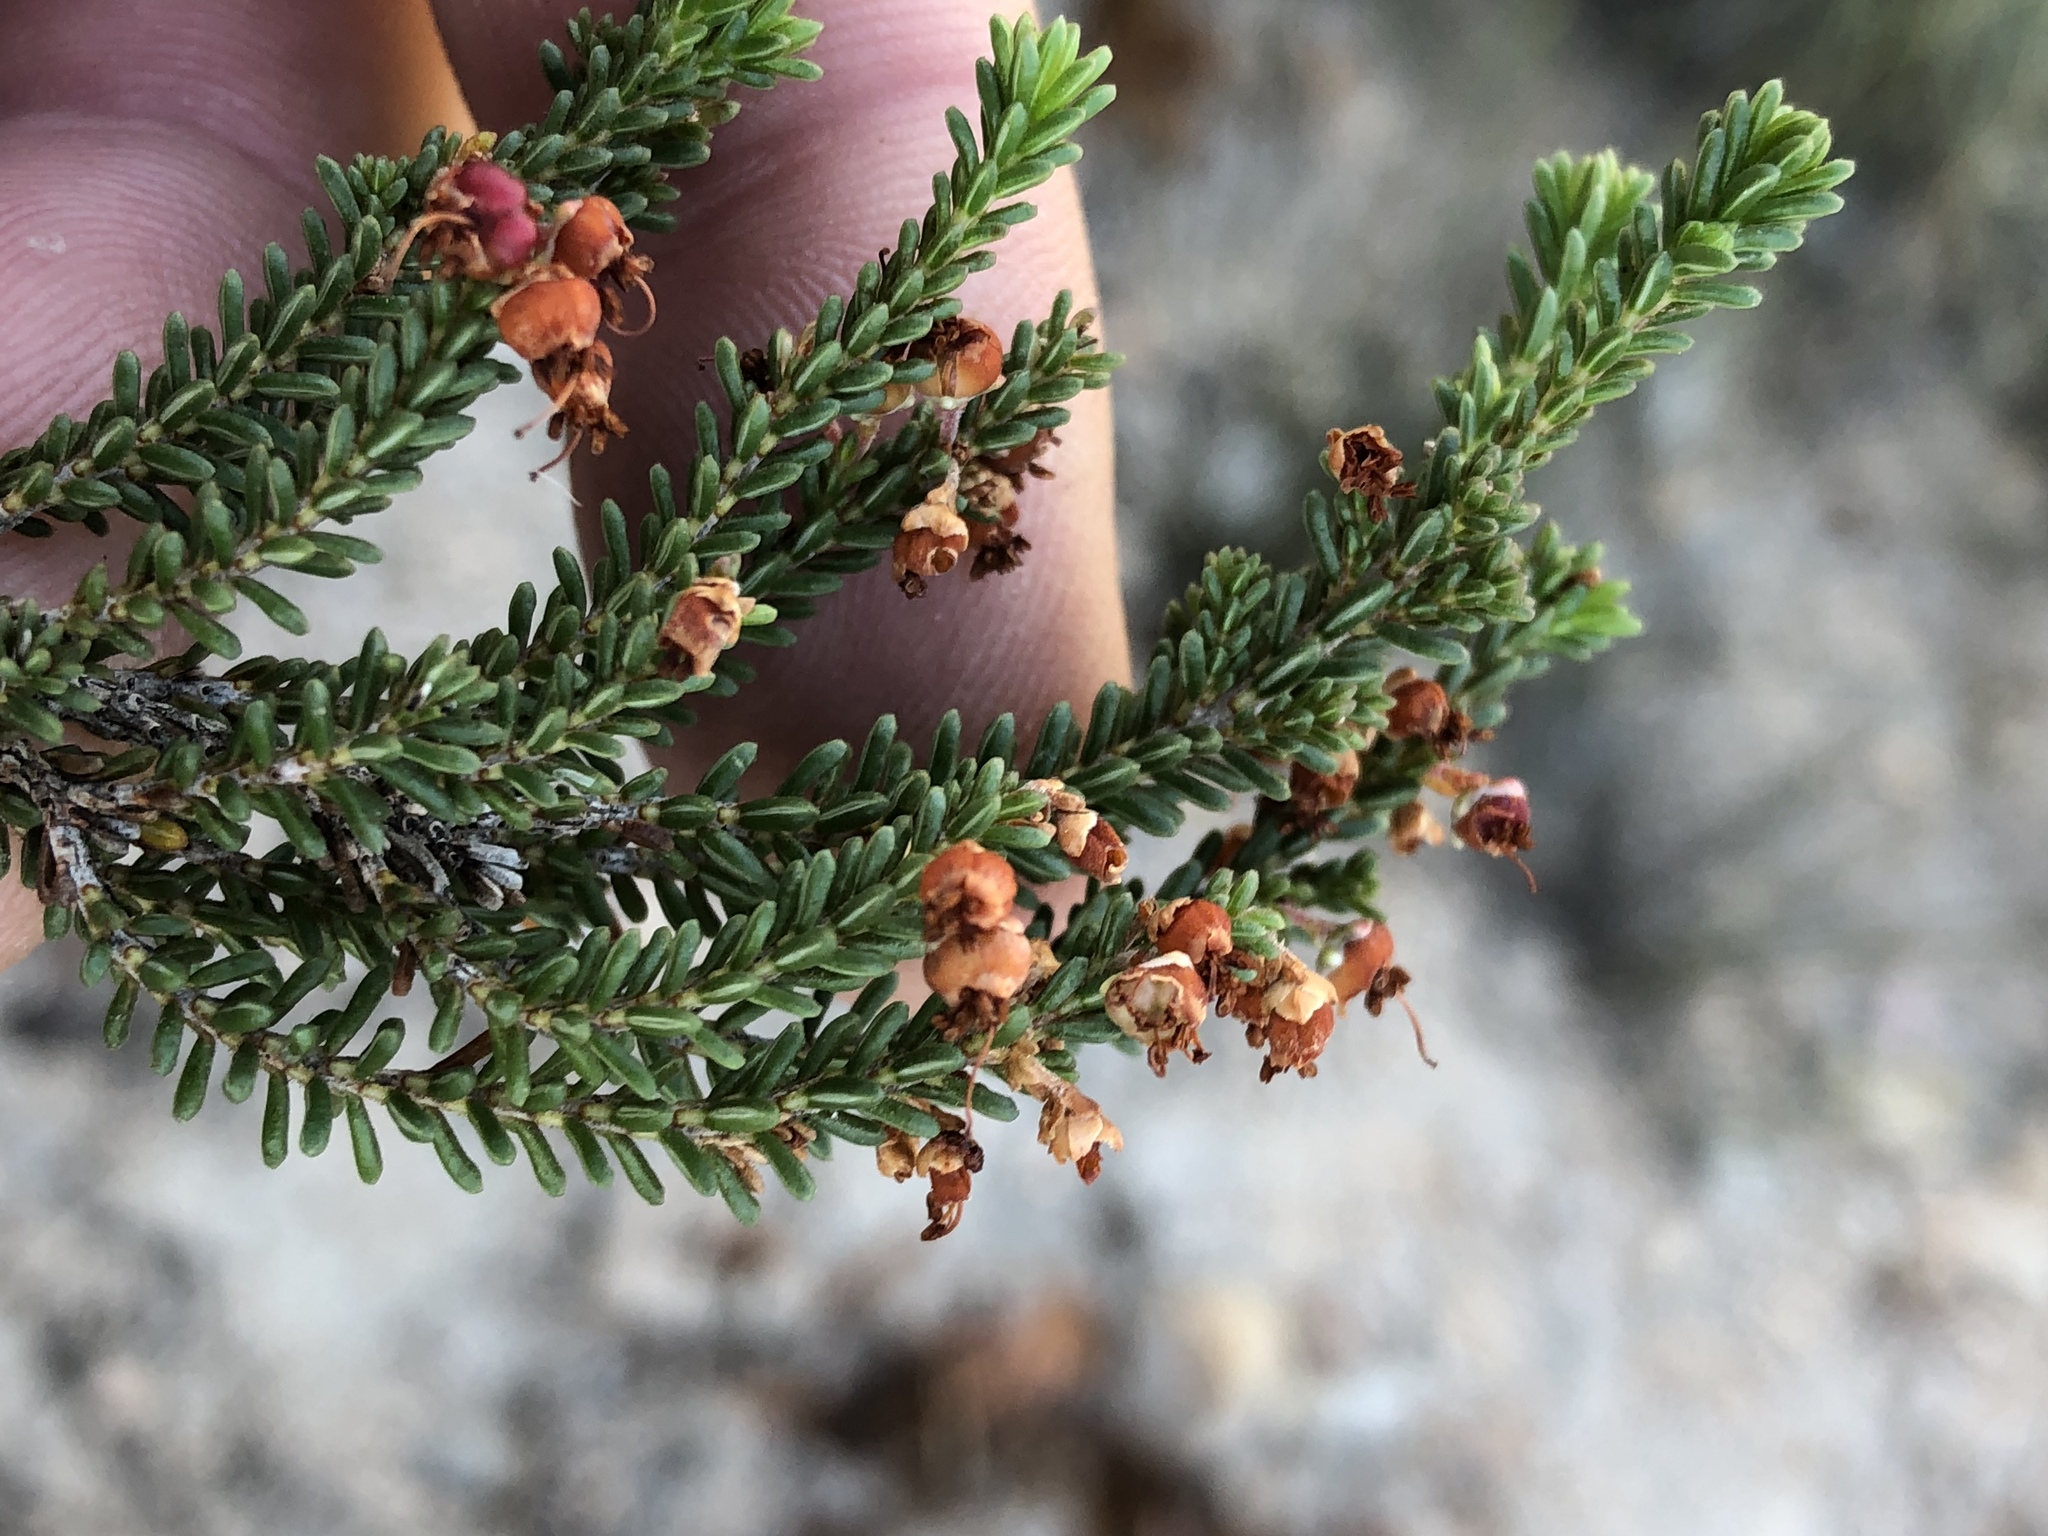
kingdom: Plantae
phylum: Tracheophyta
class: Magnoliopsida
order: Ericales
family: Ericaceae
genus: Erica
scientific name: Erica petraea
